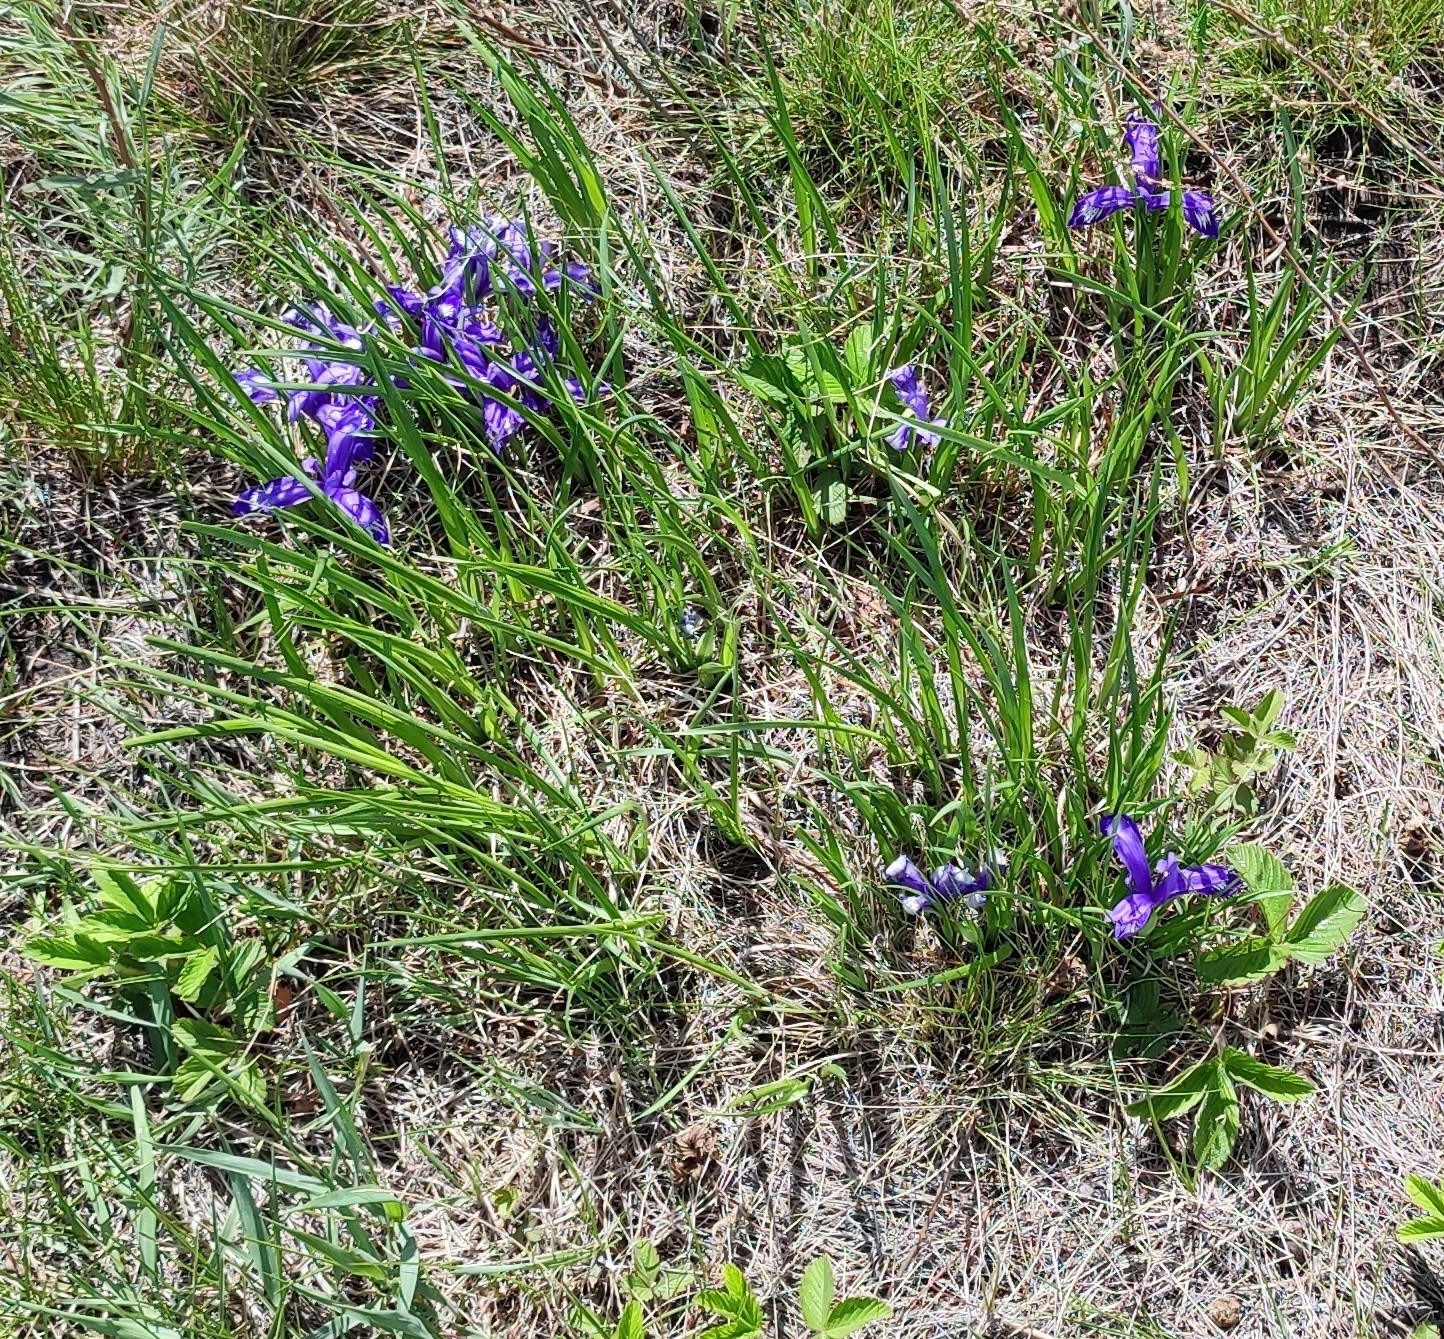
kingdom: Plantae
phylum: Tracheophyta
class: Liliopsida
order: Asparagales
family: Iridaceae
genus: Iris
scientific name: Iris ruthenica
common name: Purple-bract iris
